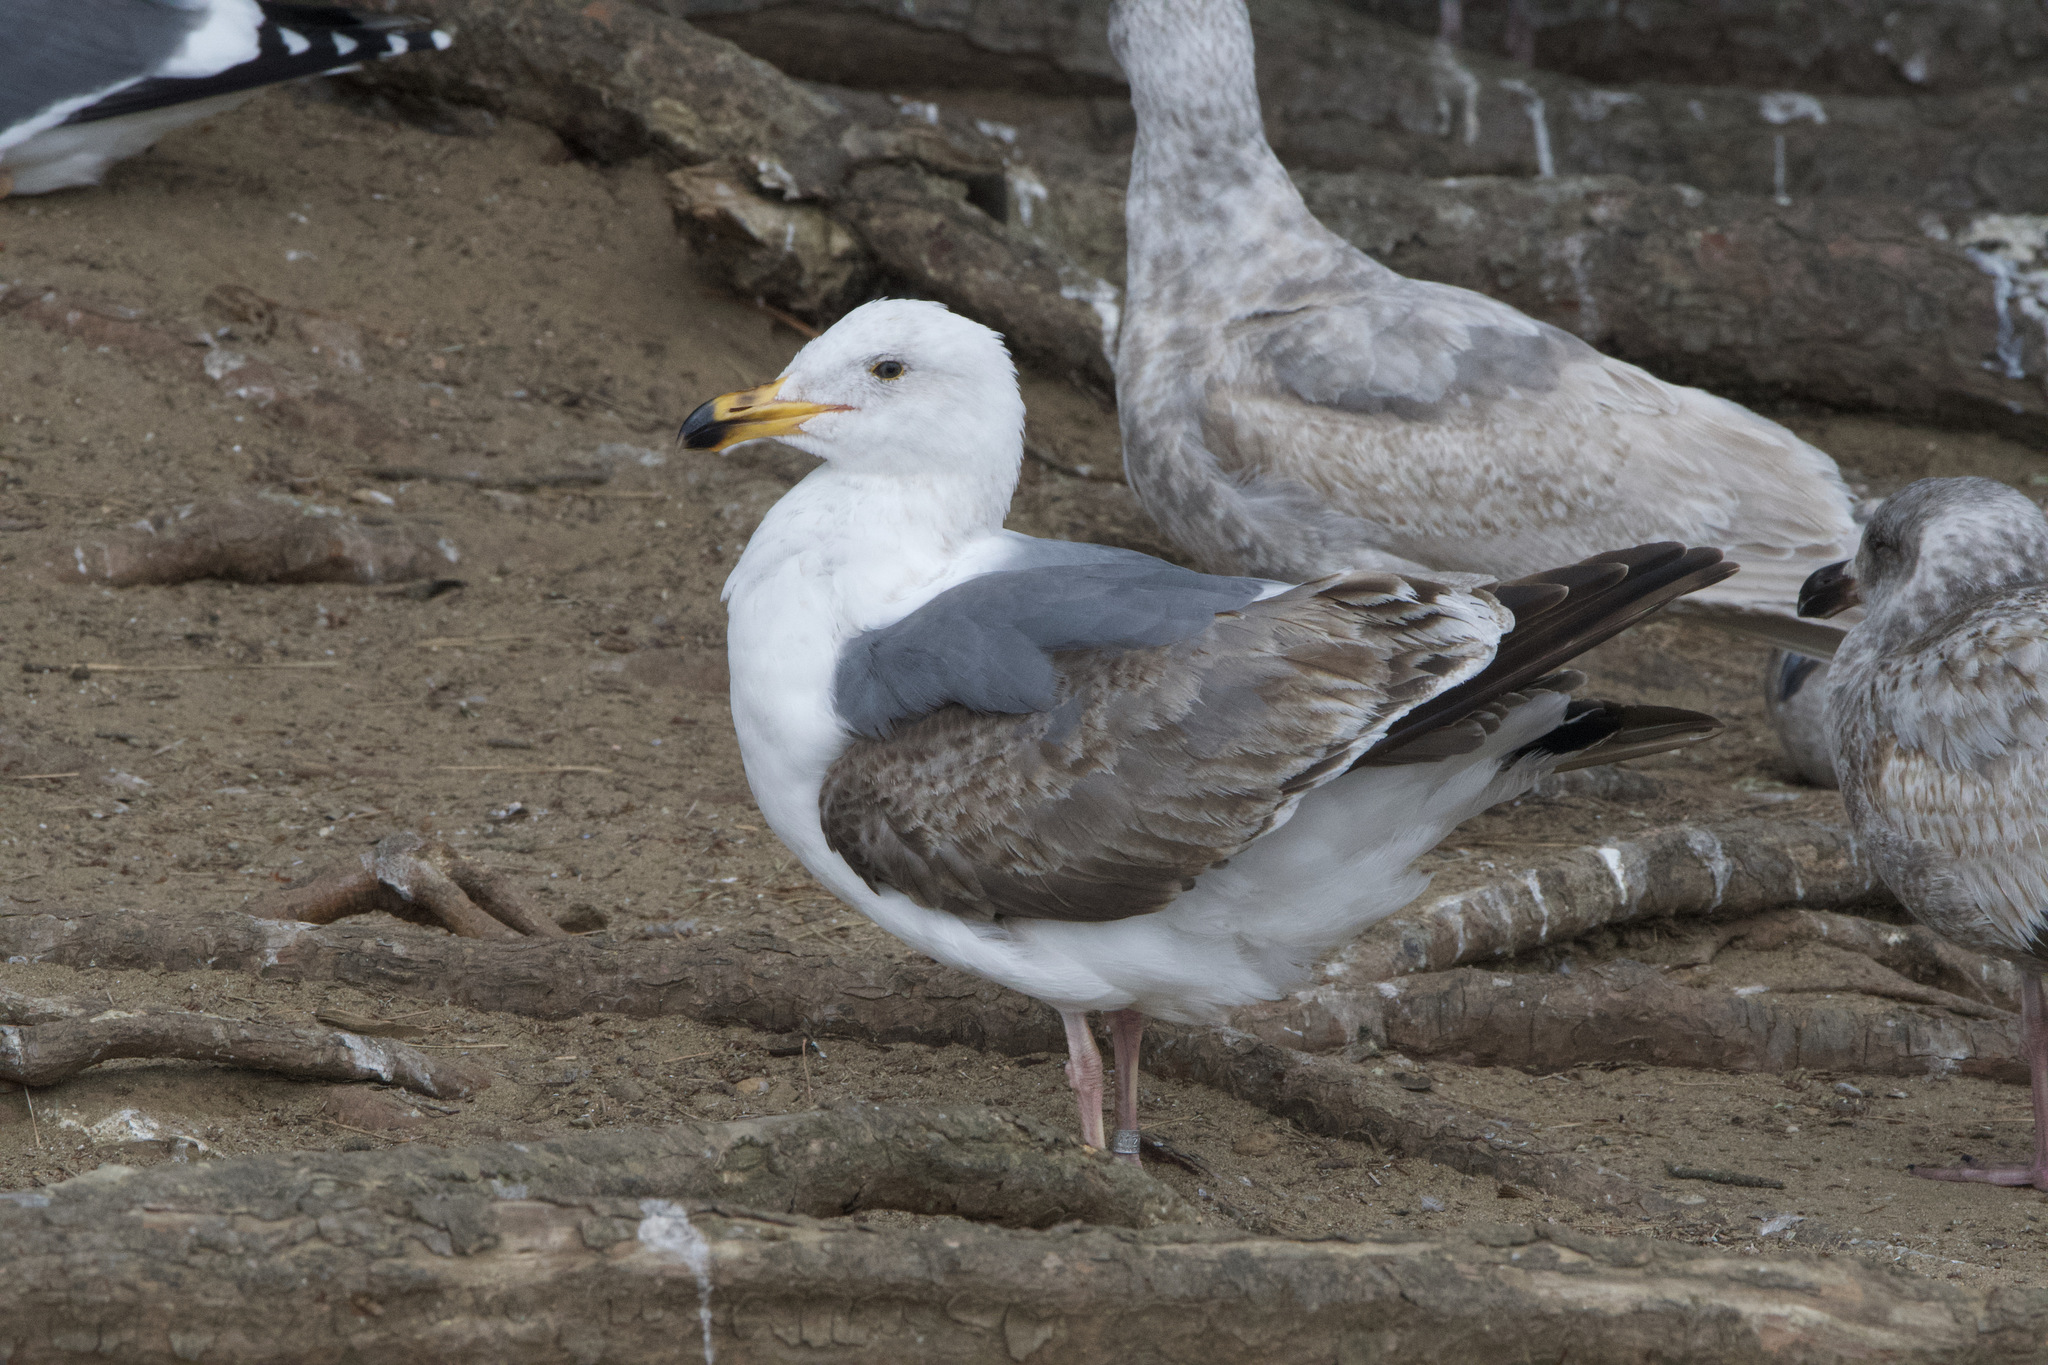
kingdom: Animalia
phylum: Chordata
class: Aves
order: Charadriiformes
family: Laridae
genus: Larus
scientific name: Larus occidentalis
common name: Western gull
